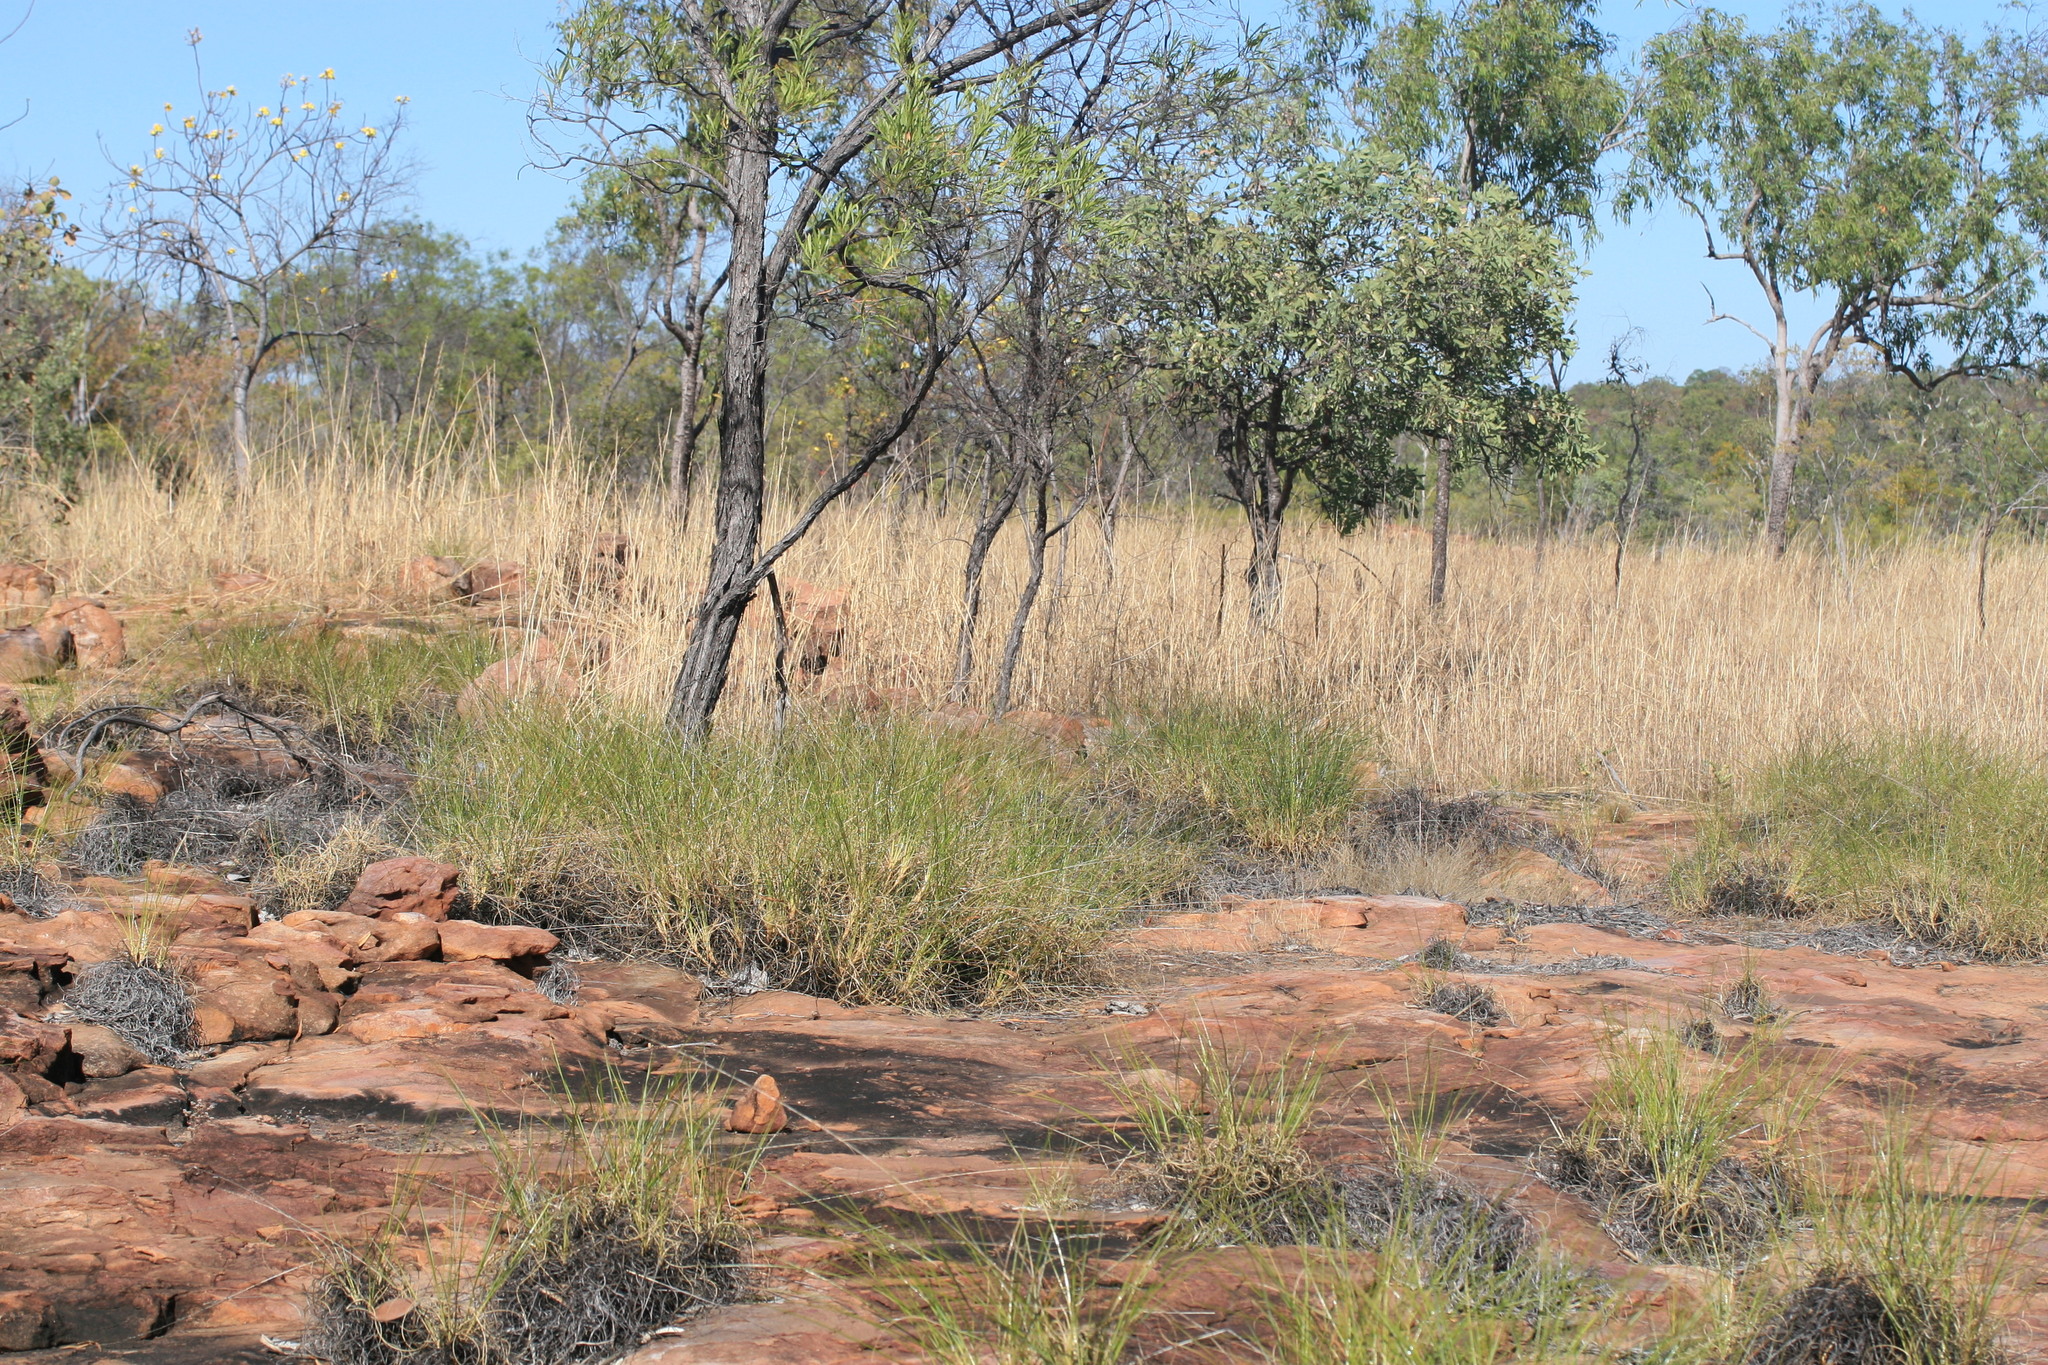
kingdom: Plantae
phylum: Tracheophyta
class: Liliopsida
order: Poales
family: Poaceae
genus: Triodia
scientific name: Triodia longiloba
